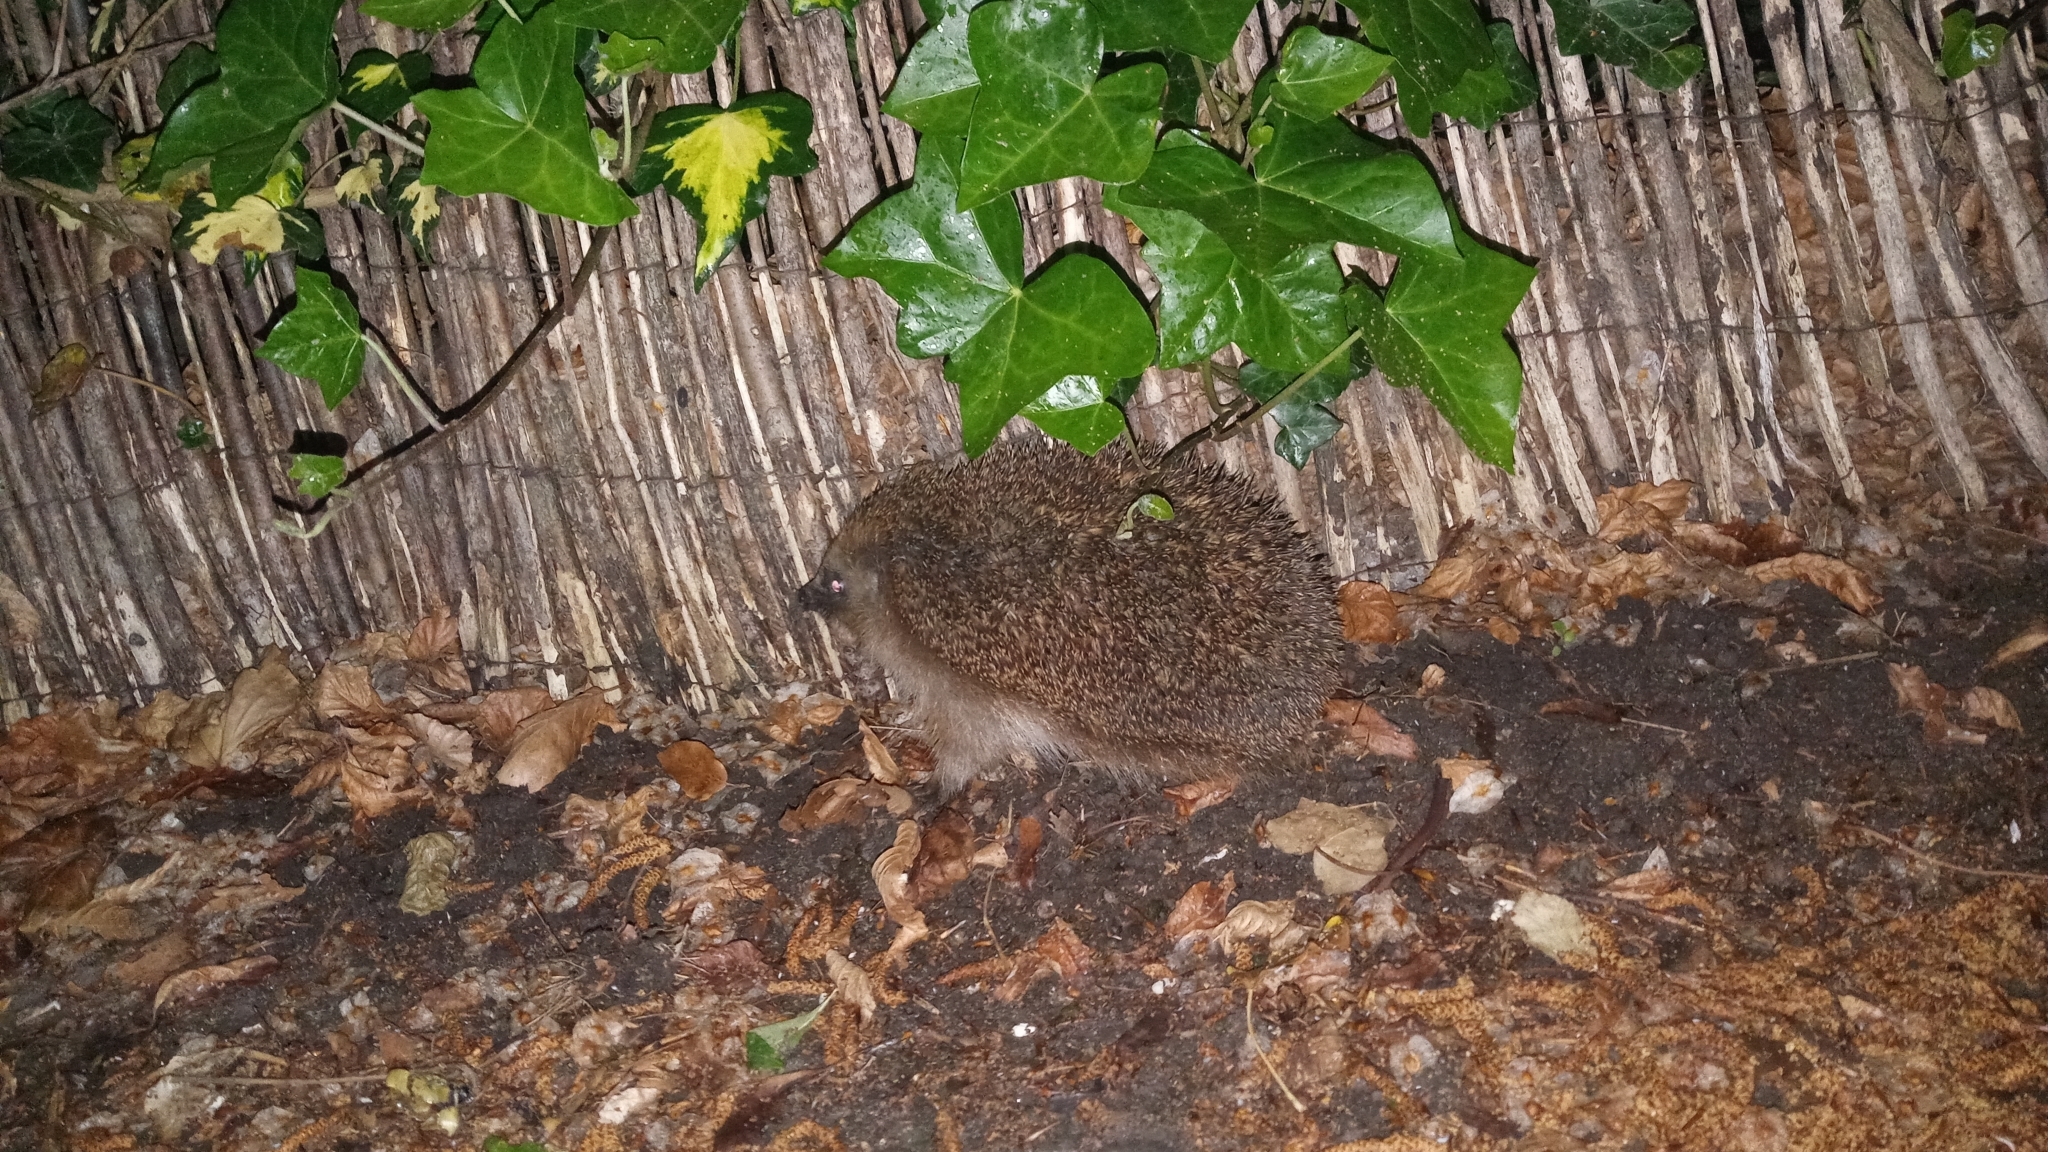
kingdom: Animalia
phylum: Chordata
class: Mammalia
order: Erinaceomorpha
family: Erinaceidae
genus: Erinaceus
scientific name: Erinaceus europaeus
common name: West european hedgehog
